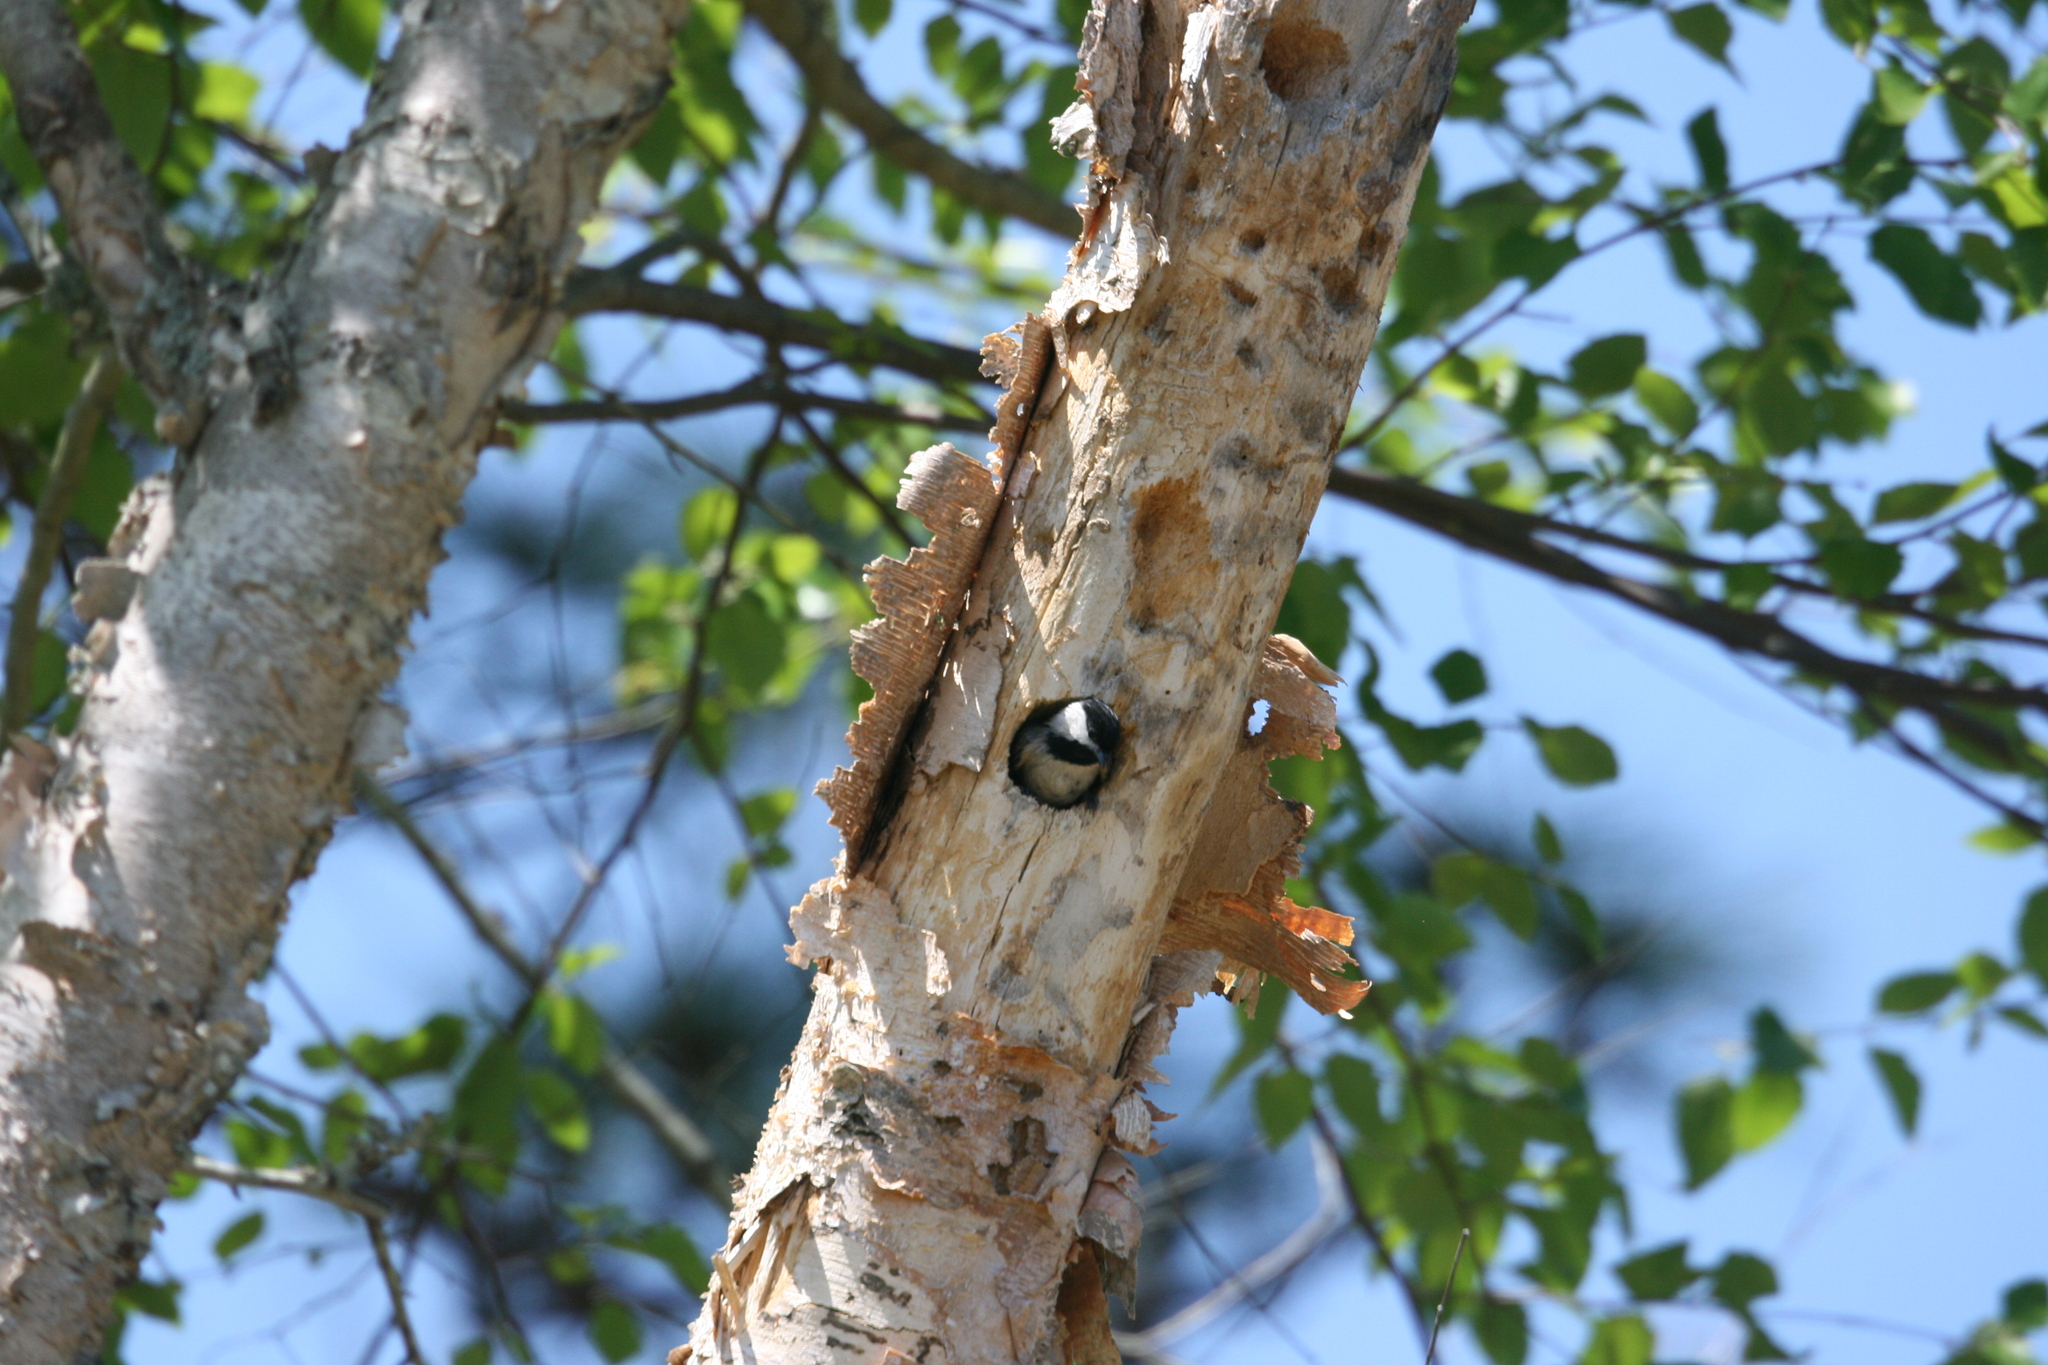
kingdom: Animalia
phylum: Chordata
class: Aves
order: Passeriformes
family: Paridae
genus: Poecile
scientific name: Poecile carolinensis
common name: Carolina chickadee
